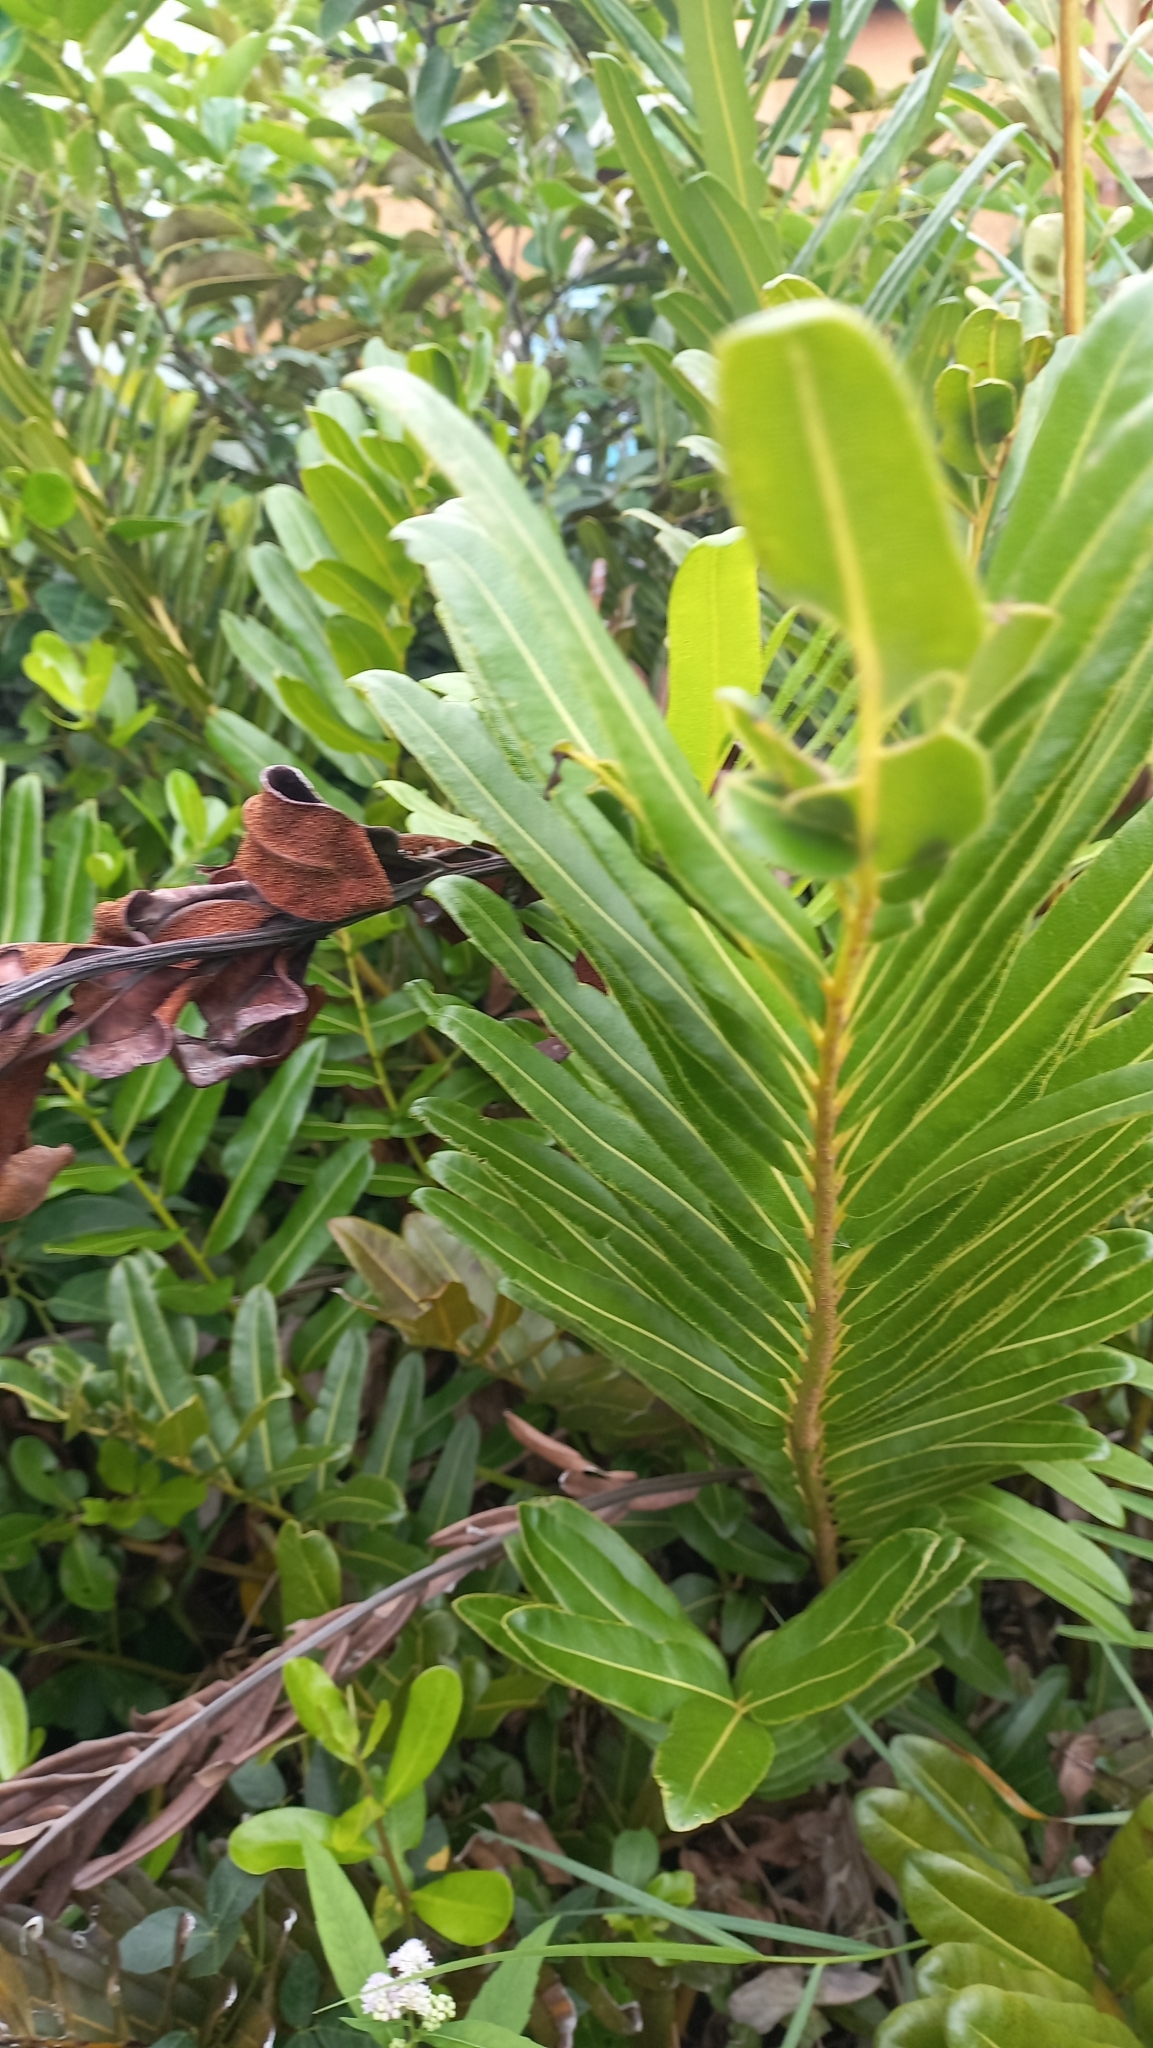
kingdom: Plantae
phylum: Tracheophyta
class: Polypodiopsida
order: Polypodiales
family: Pteridaceae
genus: Acrostichum
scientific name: Acrostichum danaeifolium
